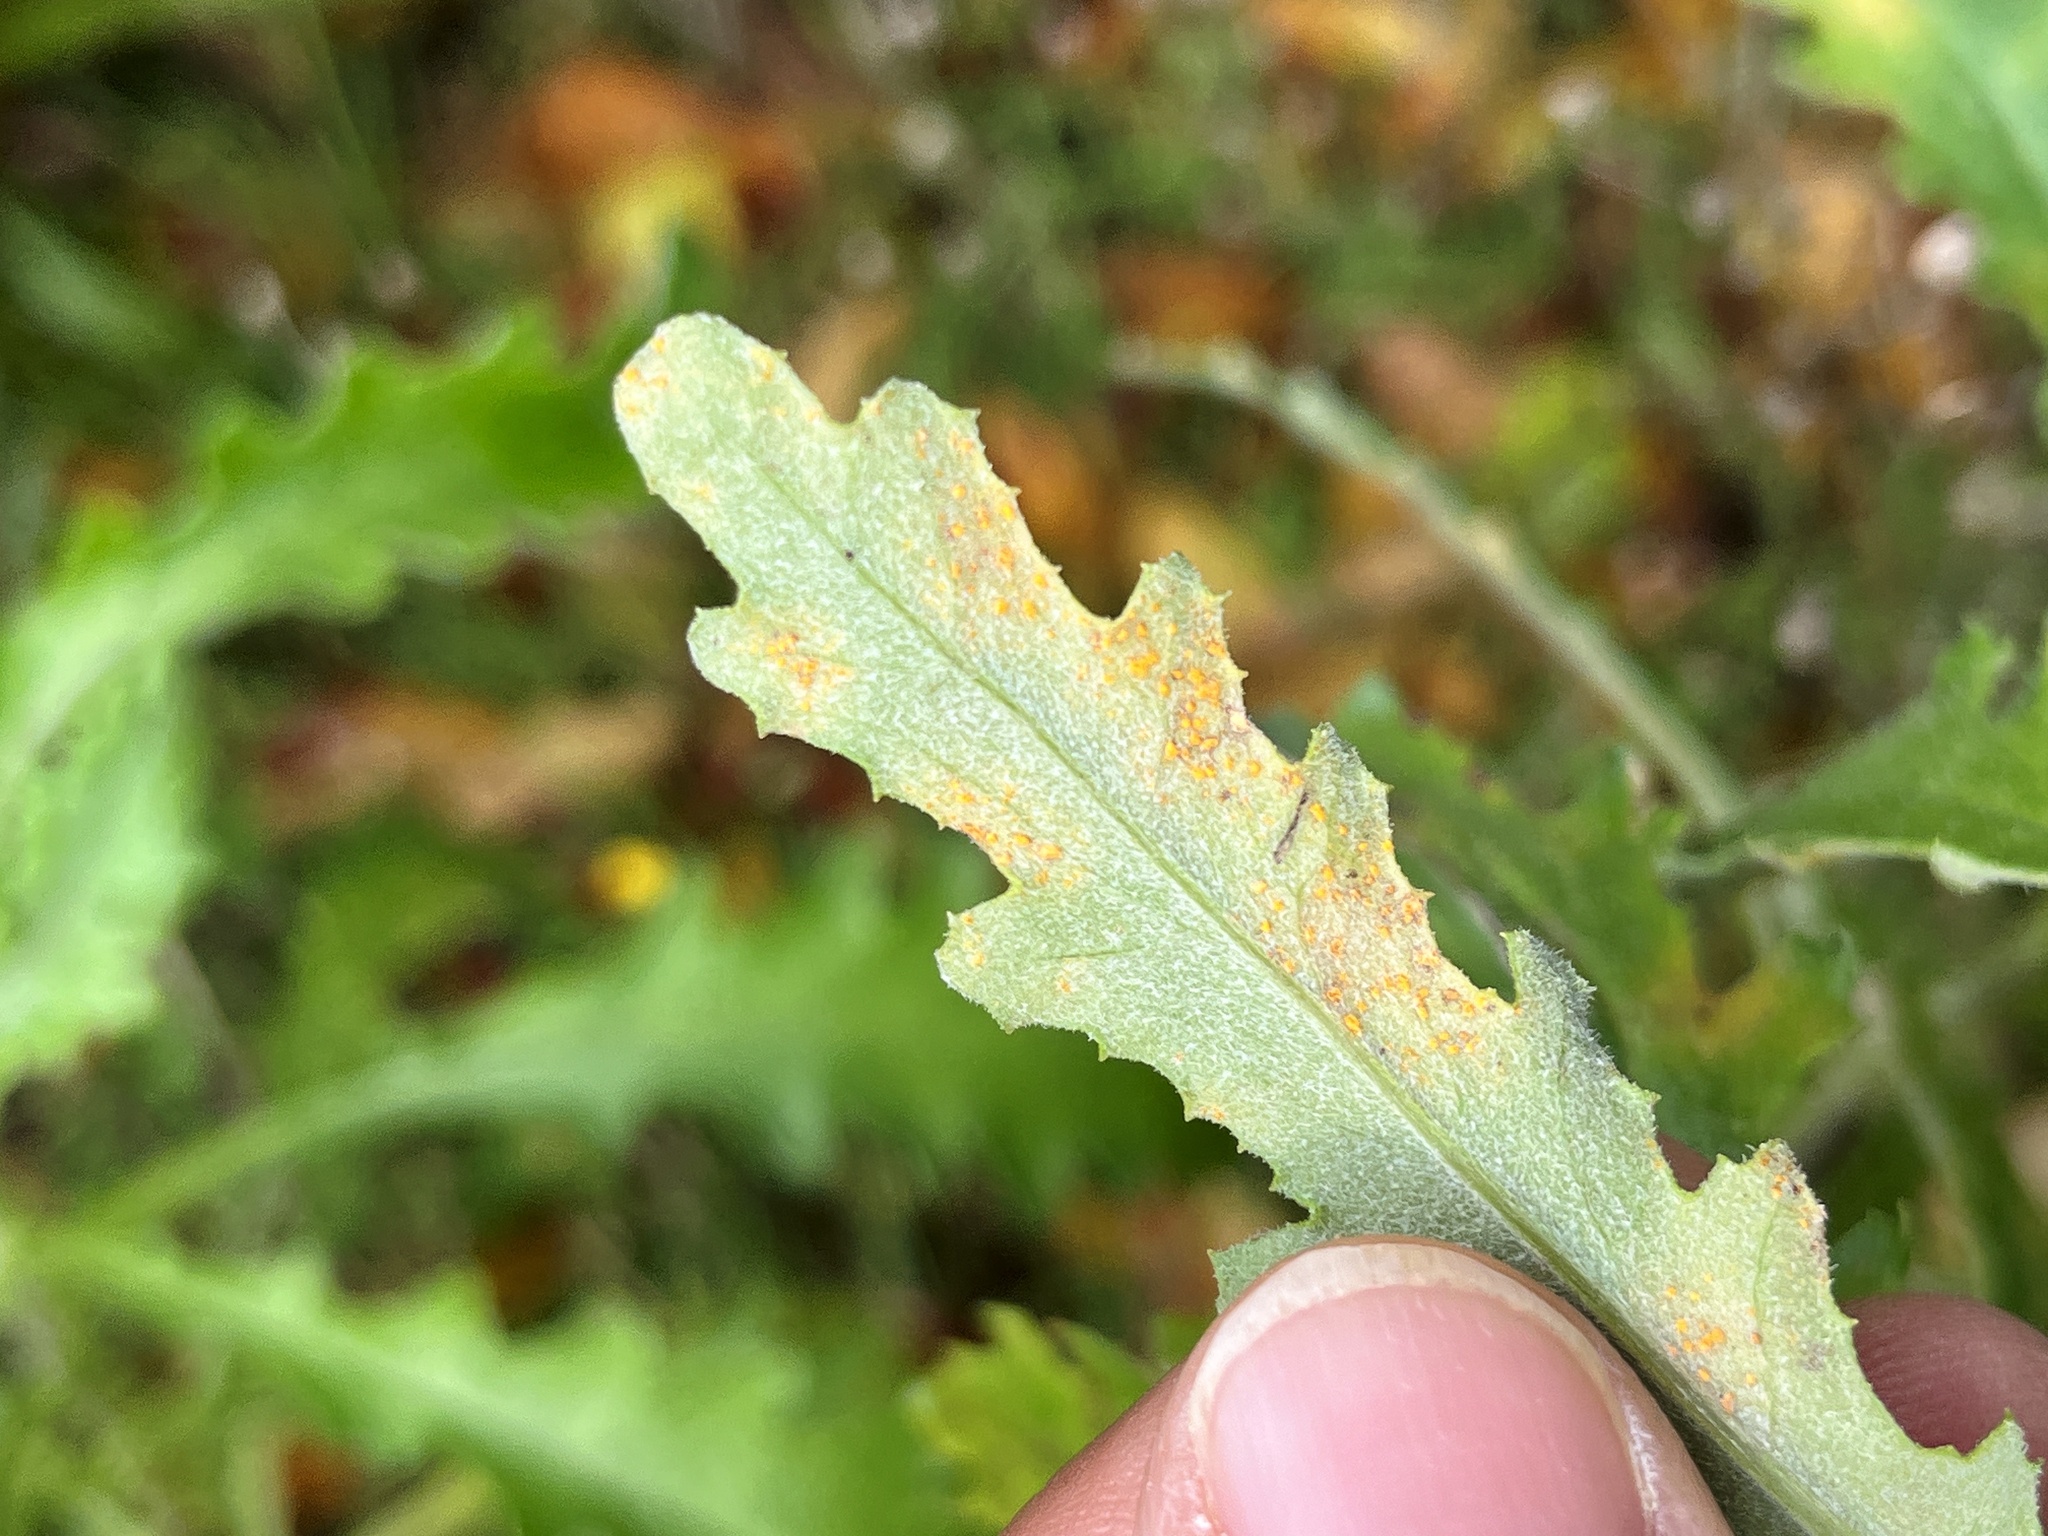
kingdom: Fungi
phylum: Basidiomycota
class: Pucciniomycetes
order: Pucciniales
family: Coleosporiaceae
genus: Coleosporium
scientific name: Coleosporium tussilaginis
